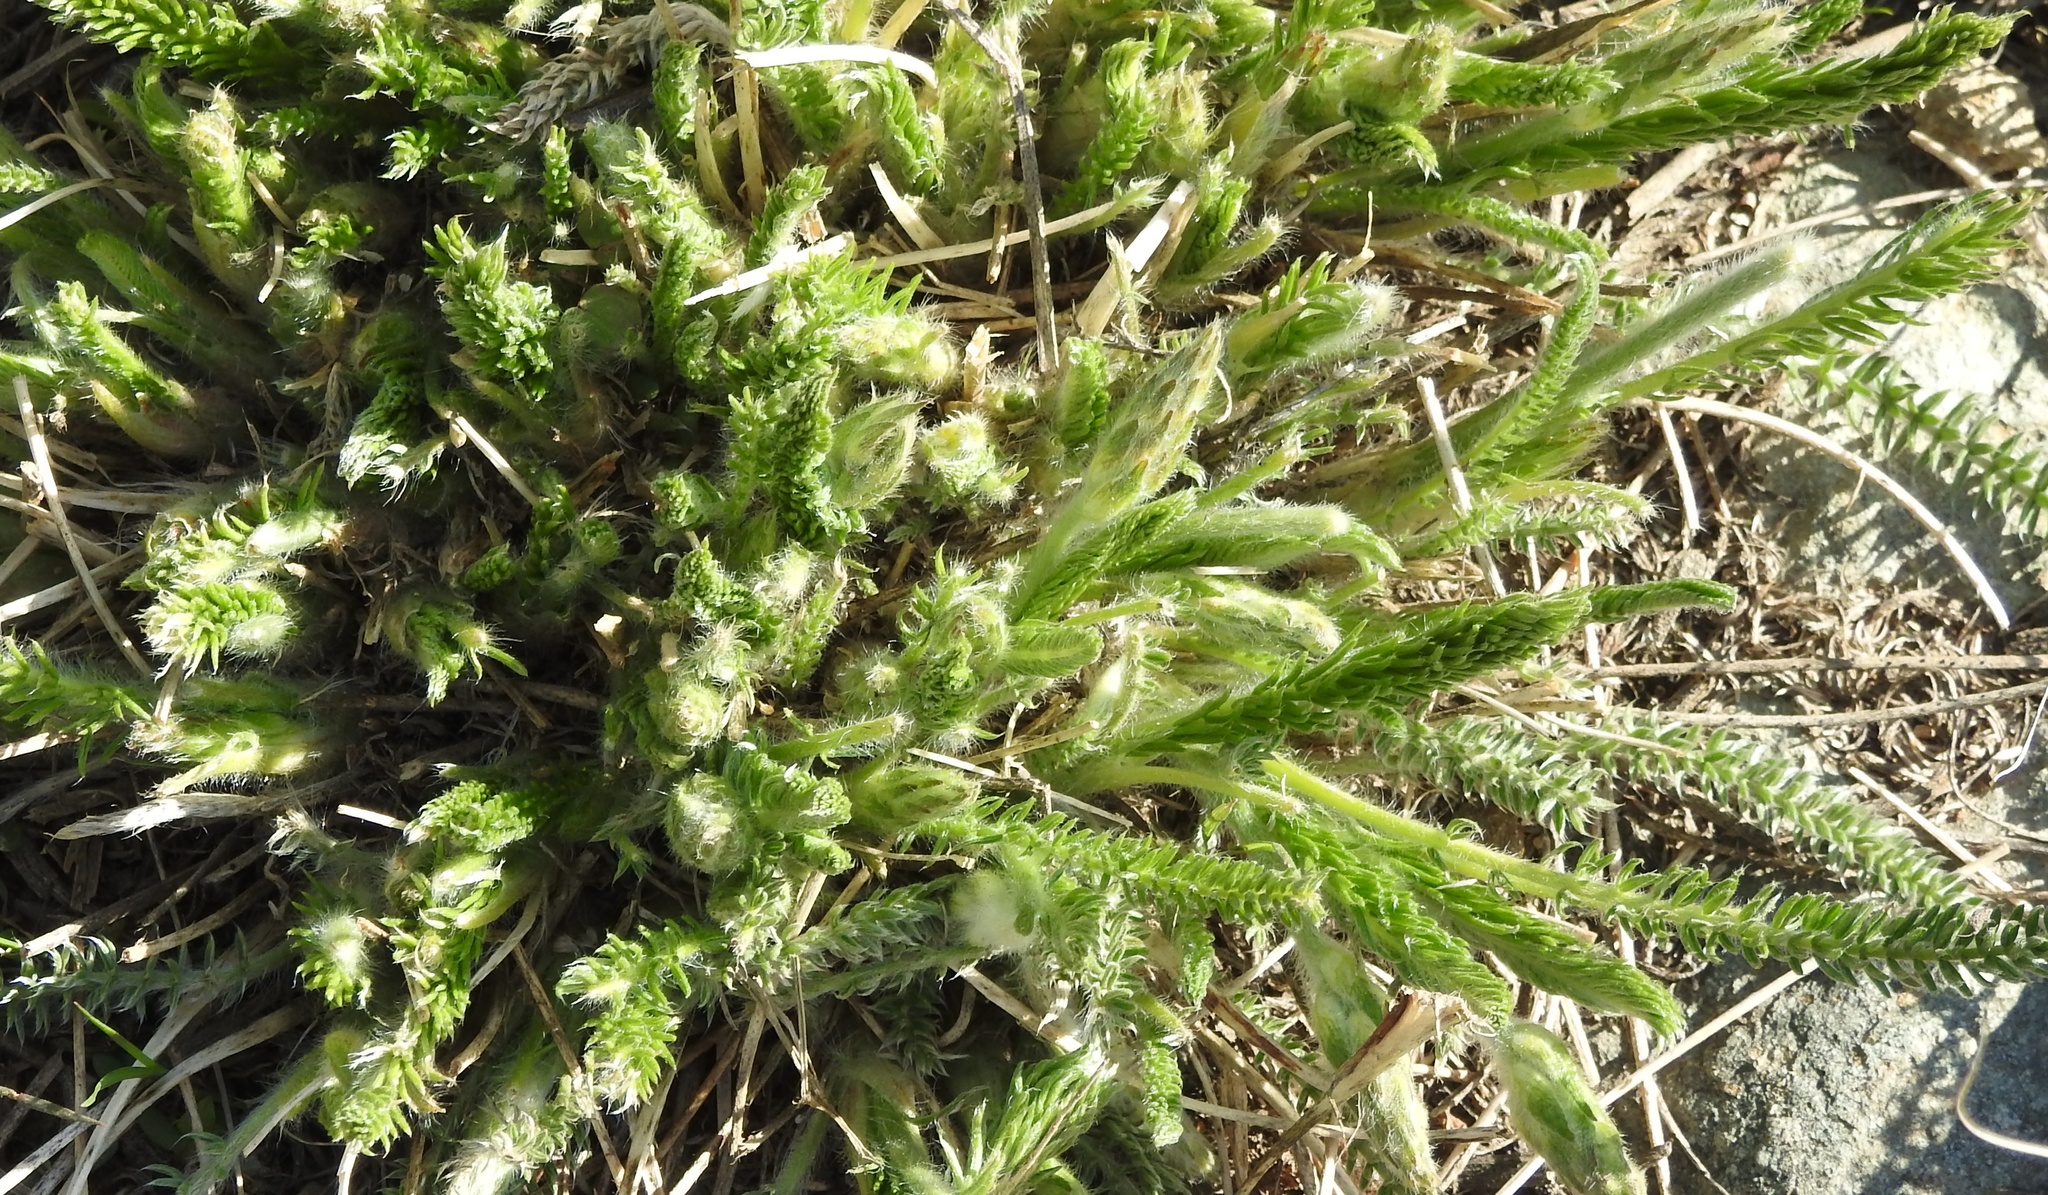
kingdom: Plantae
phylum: Tracheophyta
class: Magnoliopsida
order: Fabales
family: Fabaceae
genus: Oxytropis
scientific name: Oxytropis myriophylla
